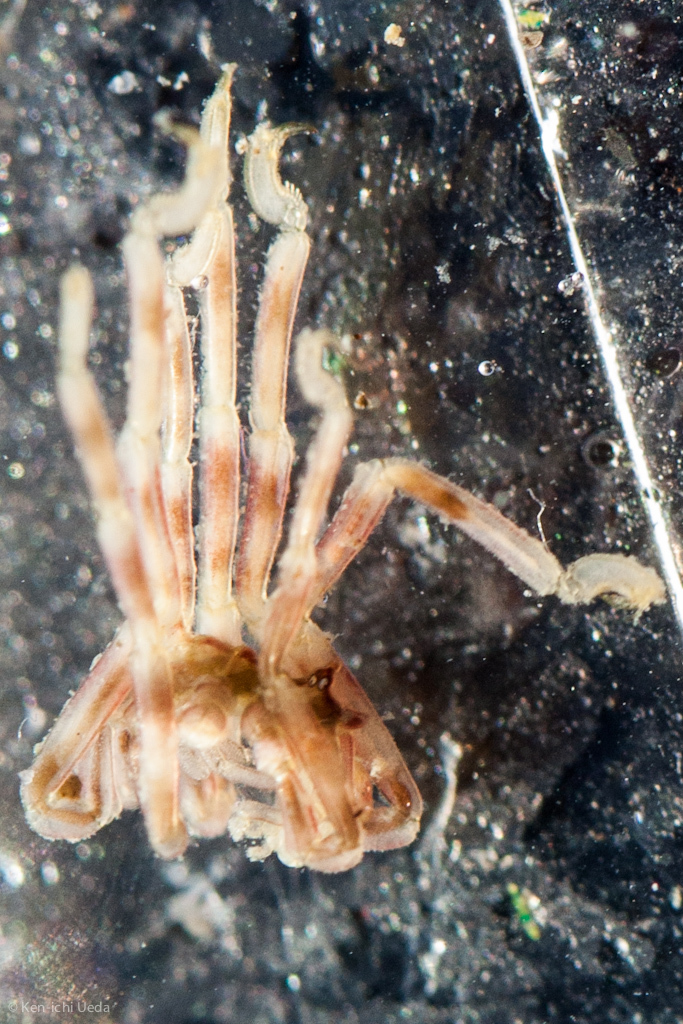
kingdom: Animalia
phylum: Arthropoda
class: Pycnogonida
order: Pantopoda
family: Ammotheidae
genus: Ammothea
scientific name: Ammothea hilgendorfi
